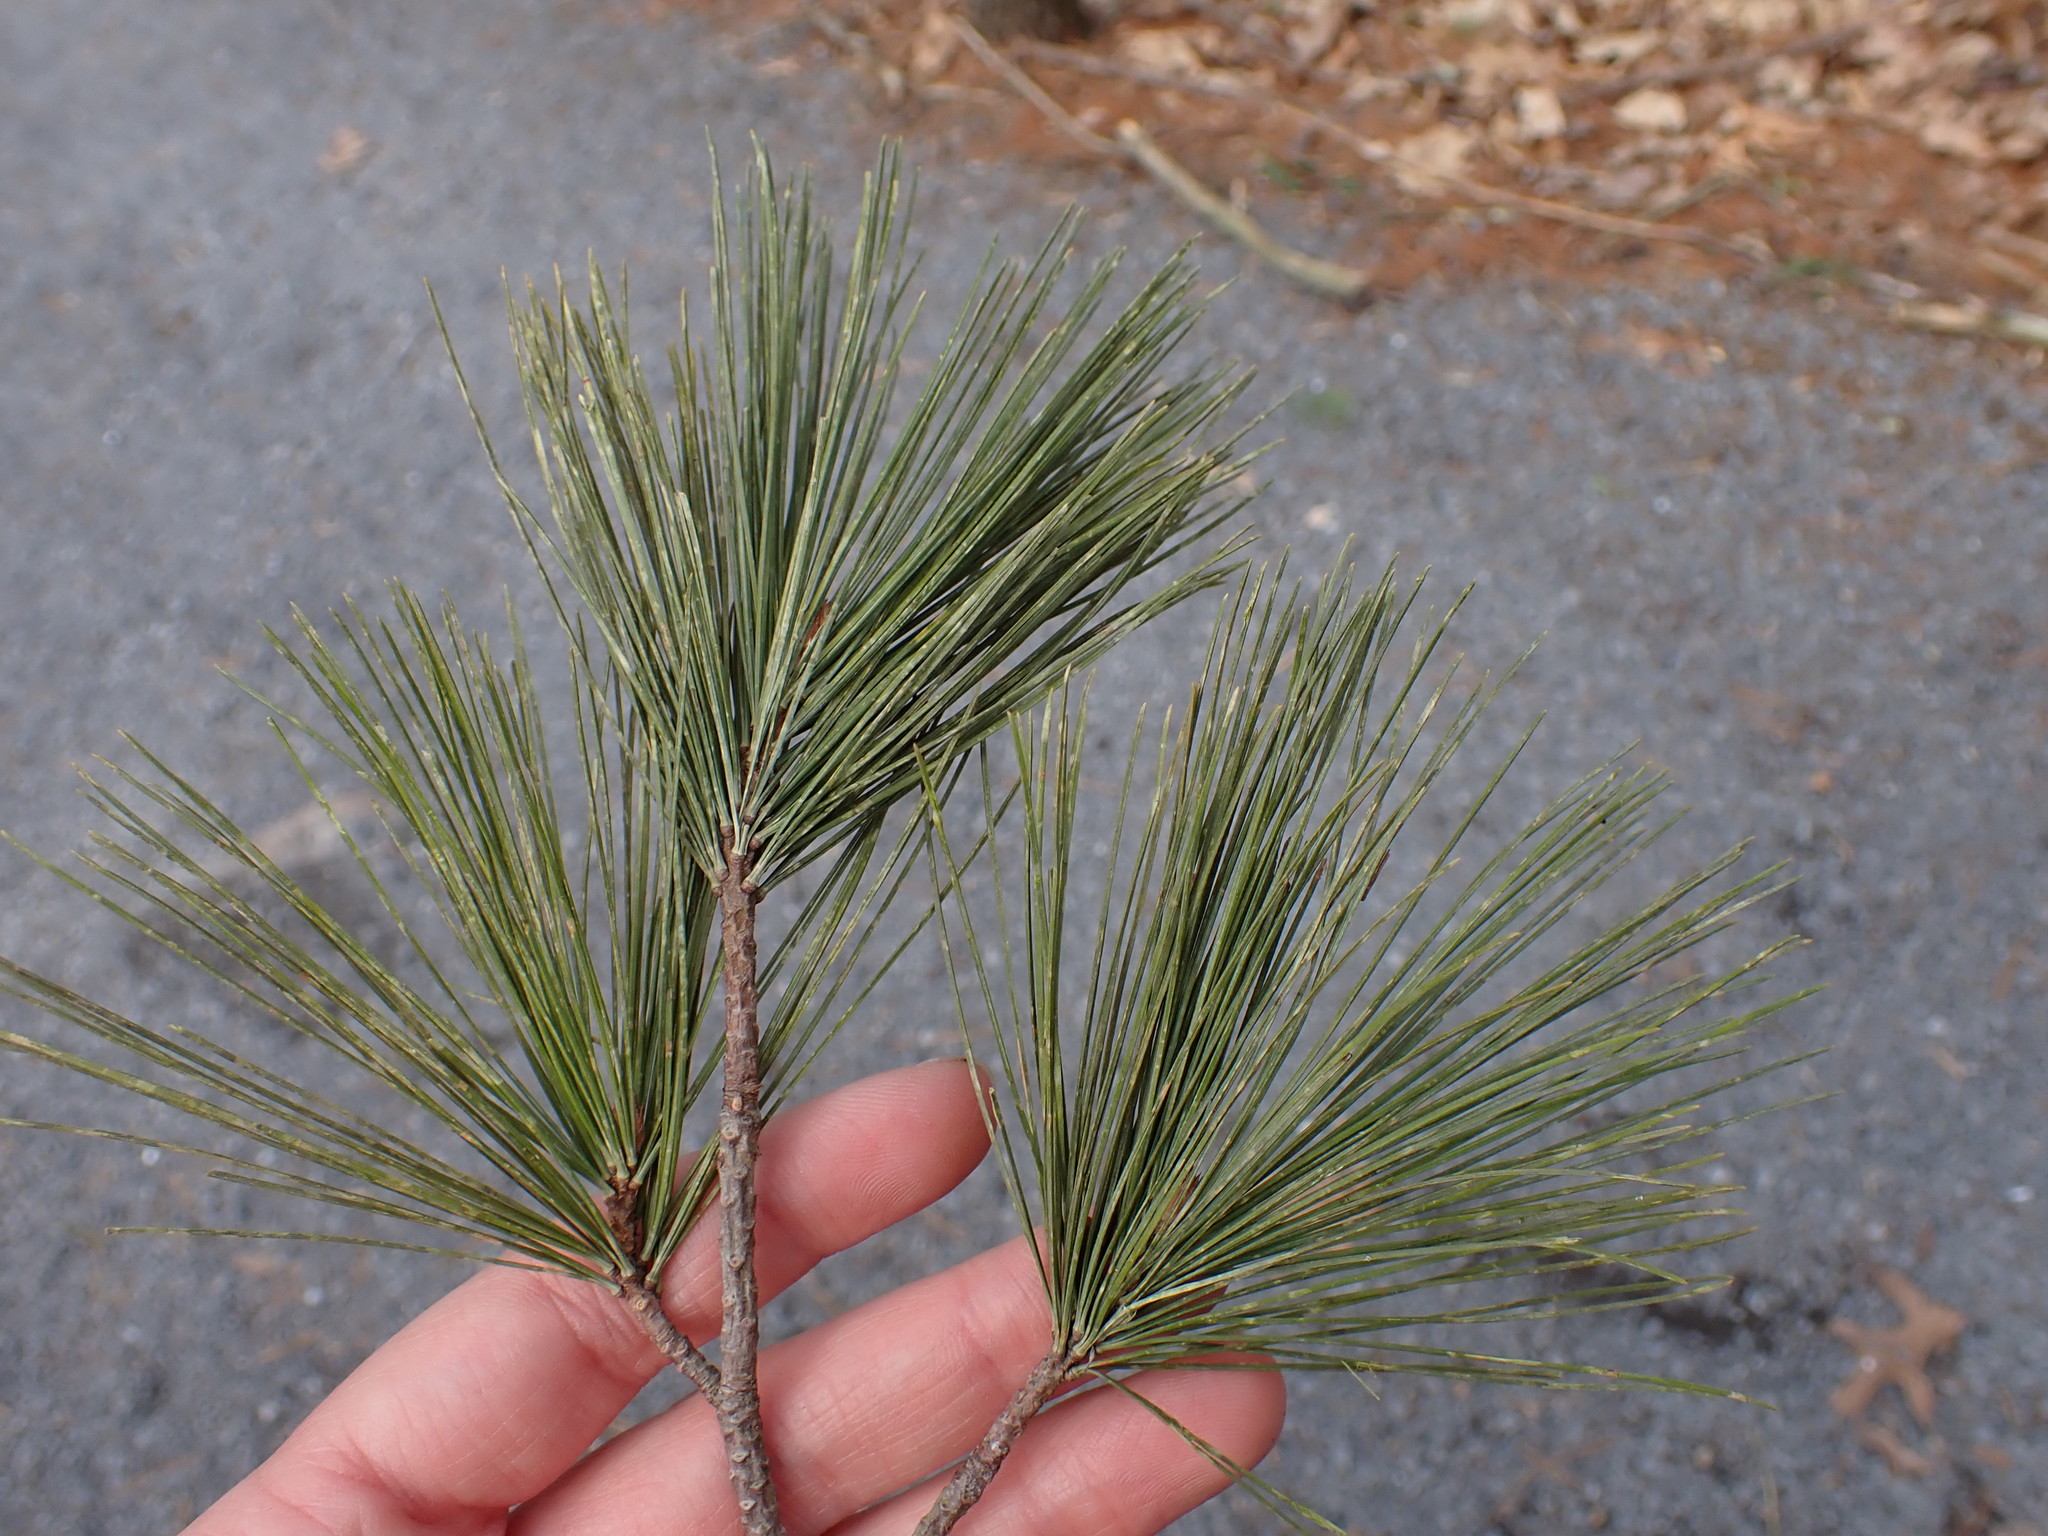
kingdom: Plantae
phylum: Tracheophyta
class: Pinopsida
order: Pinales
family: Pinaceae
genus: Pinus
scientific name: Pinus strobus
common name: Weymouth pine
